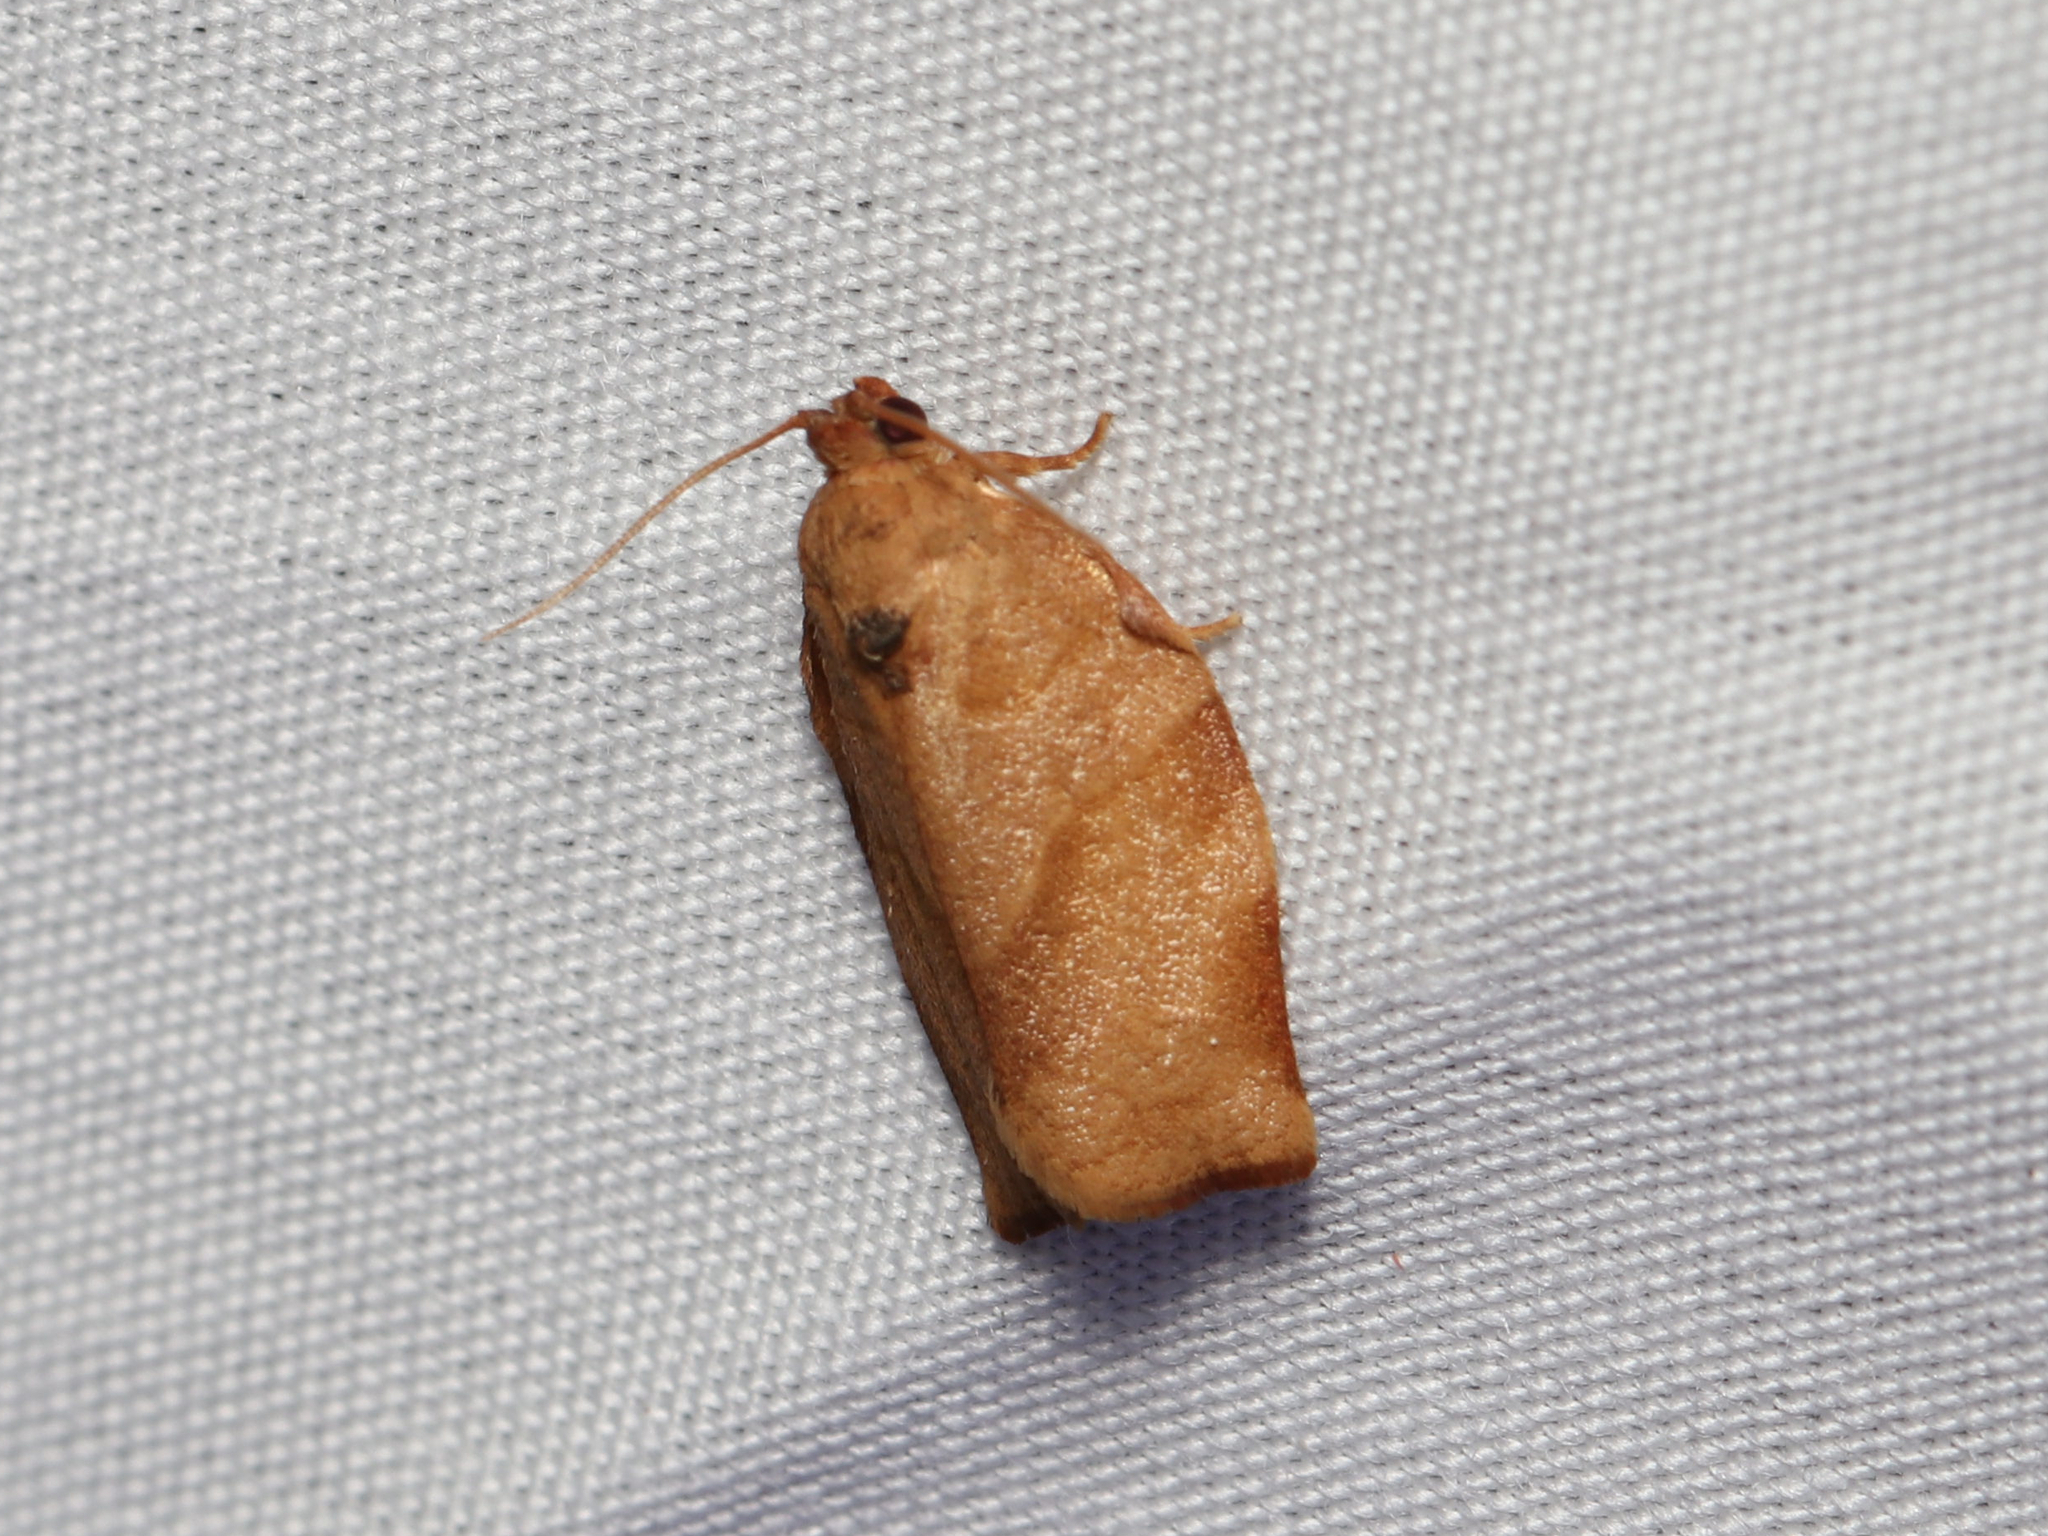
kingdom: Animalia
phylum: Arthropoda
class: Insecta
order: Lepidoptera
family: Tortricidae
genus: Choristoneura
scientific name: Choristoneura rosaceana
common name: Oblique-banded leafroller moth
